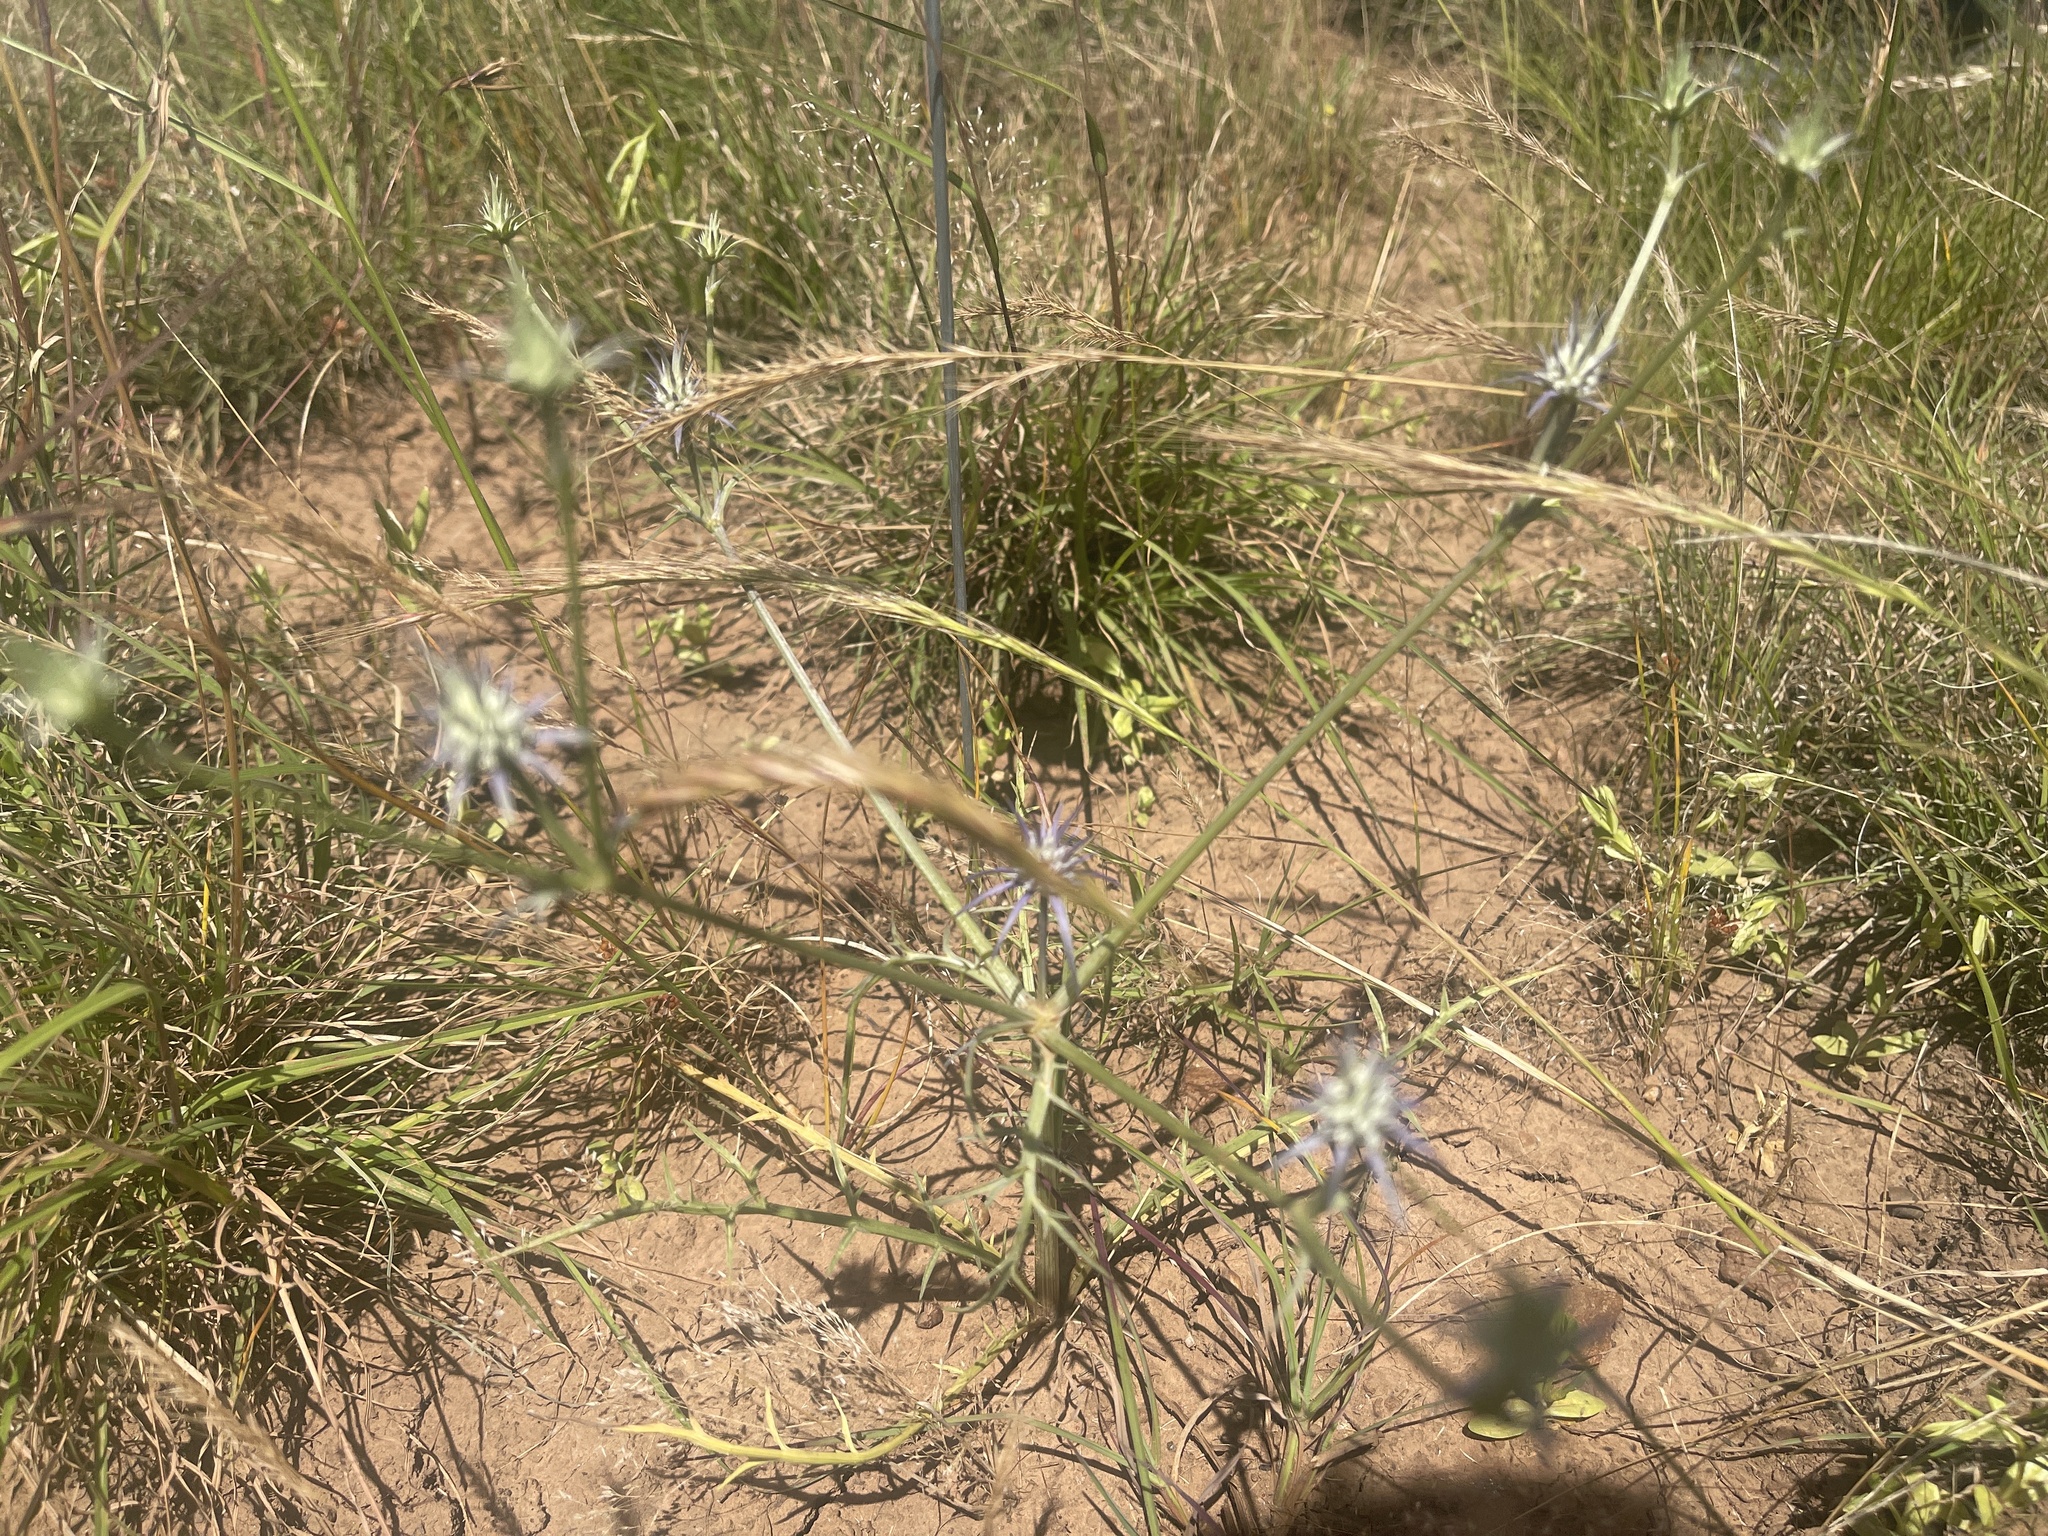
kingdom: Plantae
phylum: Tracheophyta
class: Magnoliopsida
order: Apiales
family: Apiaceae
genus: Eryngium
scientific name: Eryngium ovinum
